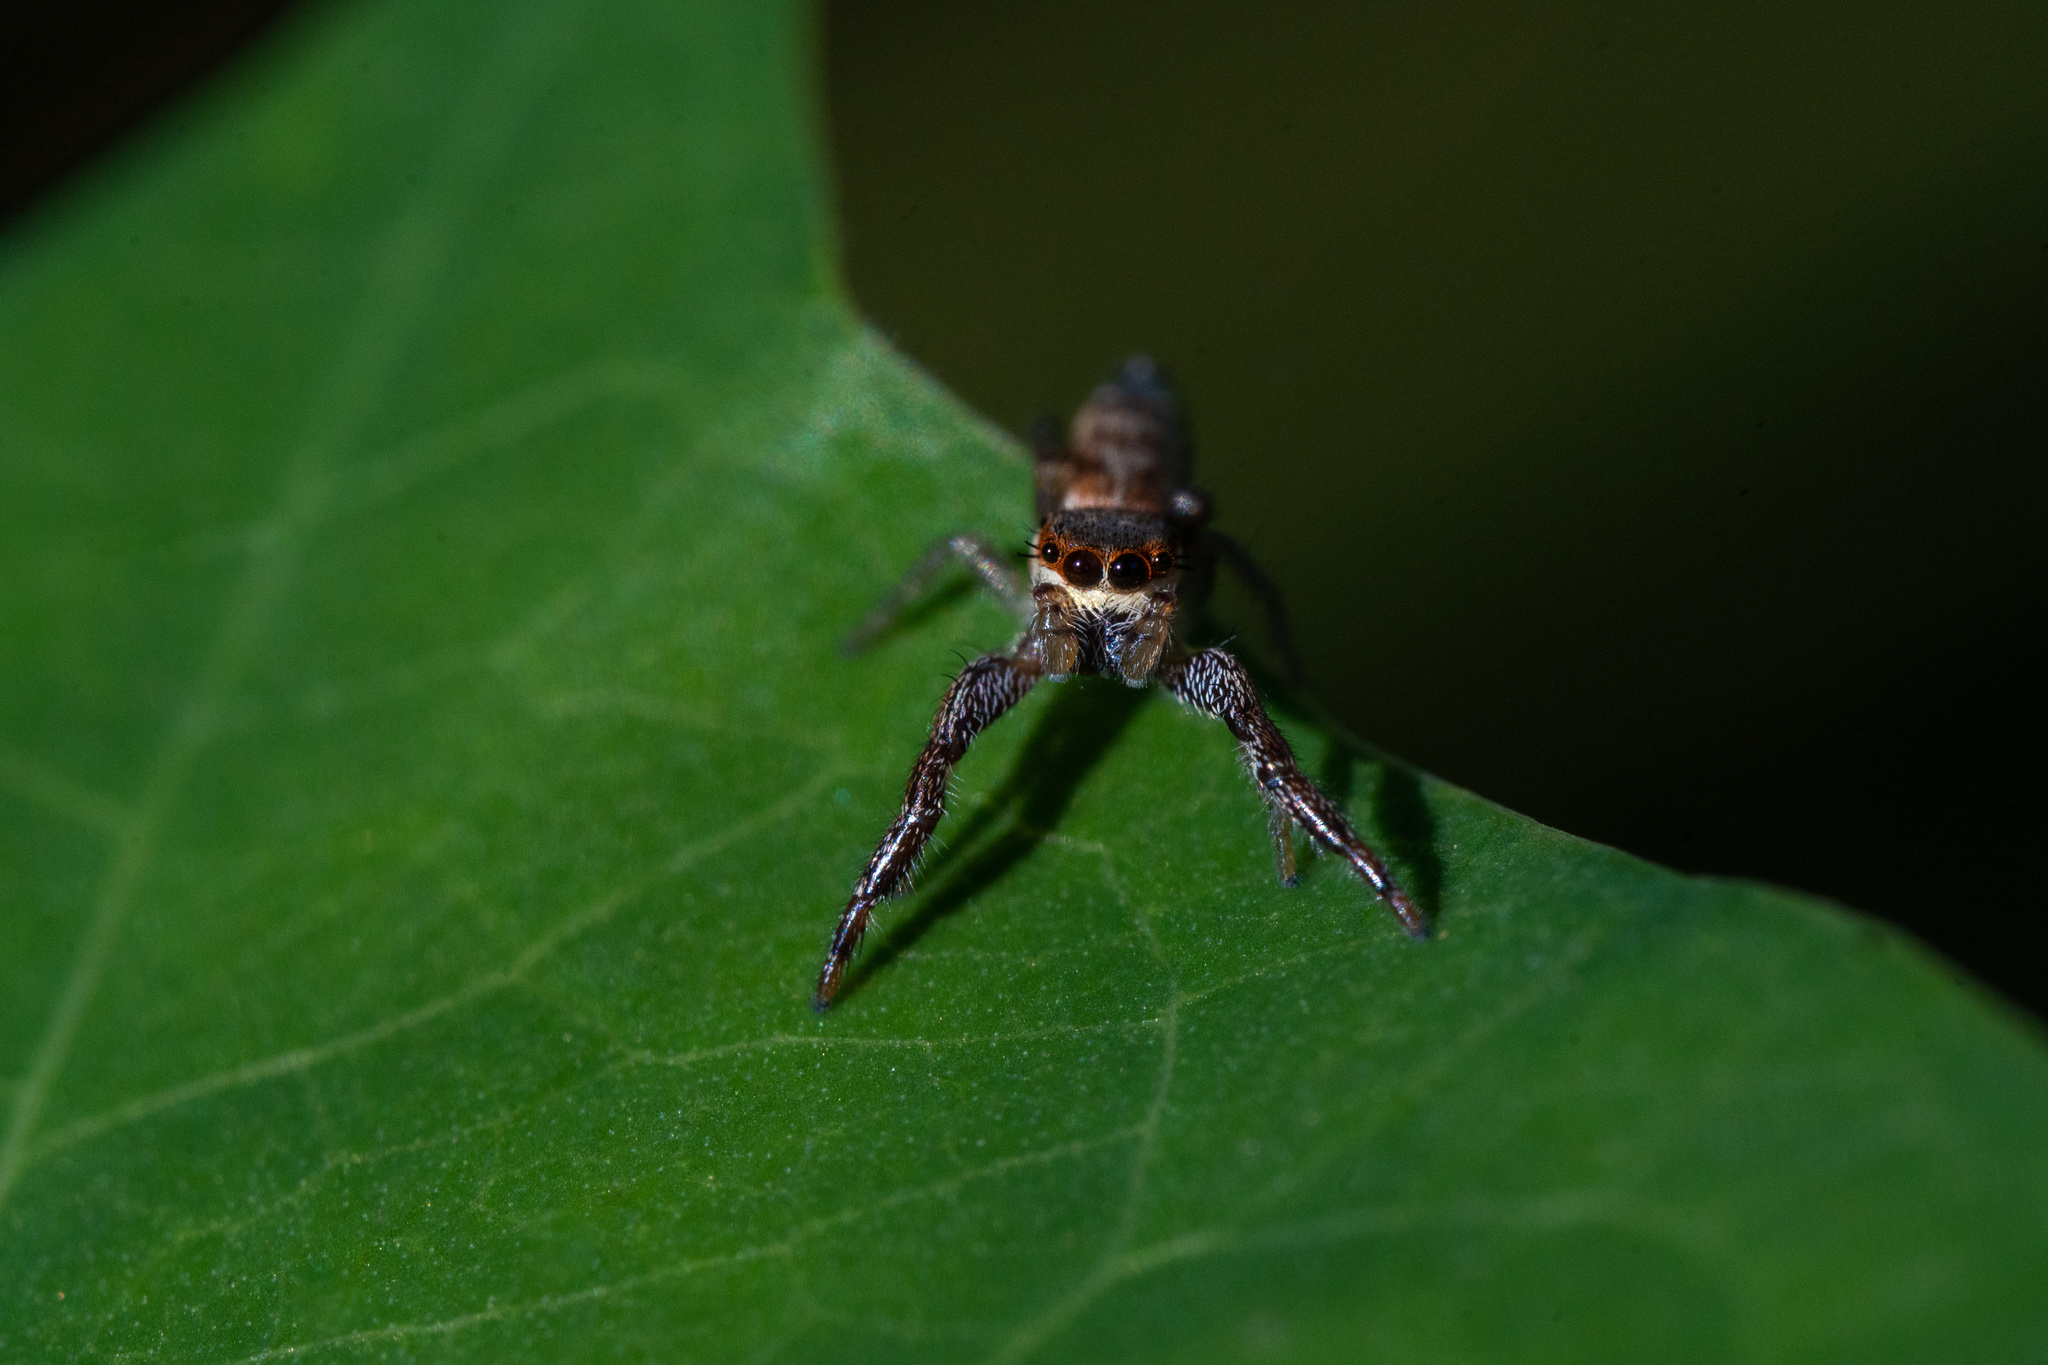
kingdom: Animalia
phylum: Arthropoda
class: Arachnida
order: Araneae
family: Salticidae
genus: Hentzia
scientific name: Hentzia palmarum
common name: Common hentz jumping spider
